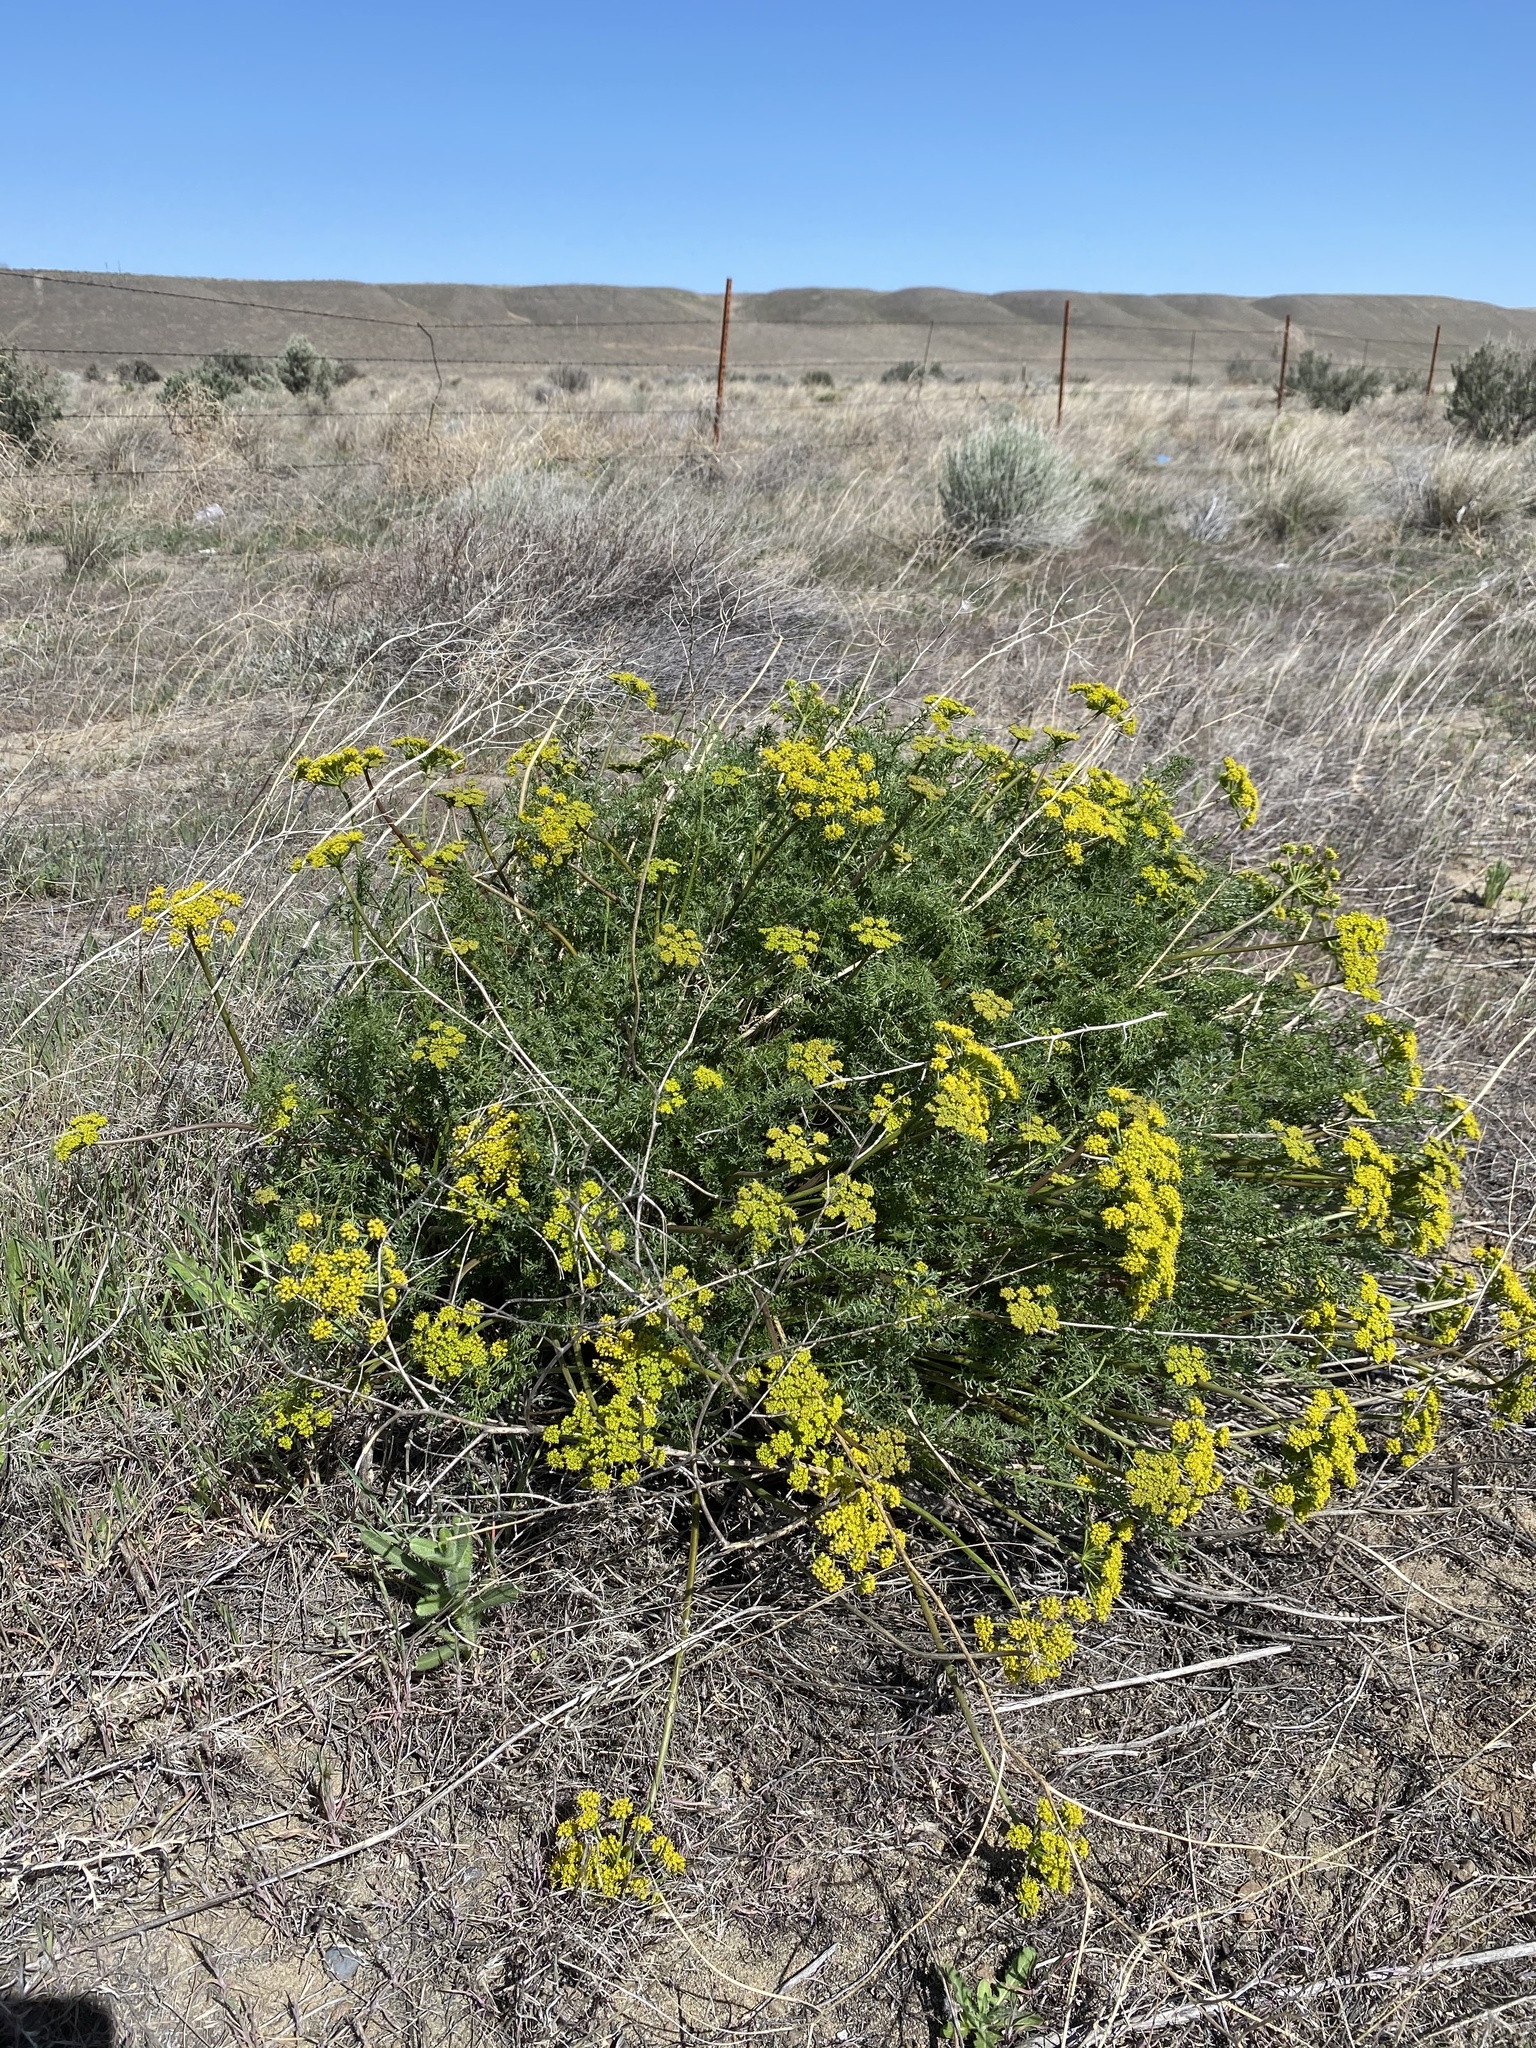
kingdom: Plantae
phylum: Tracheophyta
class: Magnoliopsida
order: Apiales
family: Apiaceae
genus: Pteryxia
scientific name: Pteryxia terebinthina
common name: Turpentine wavewing
